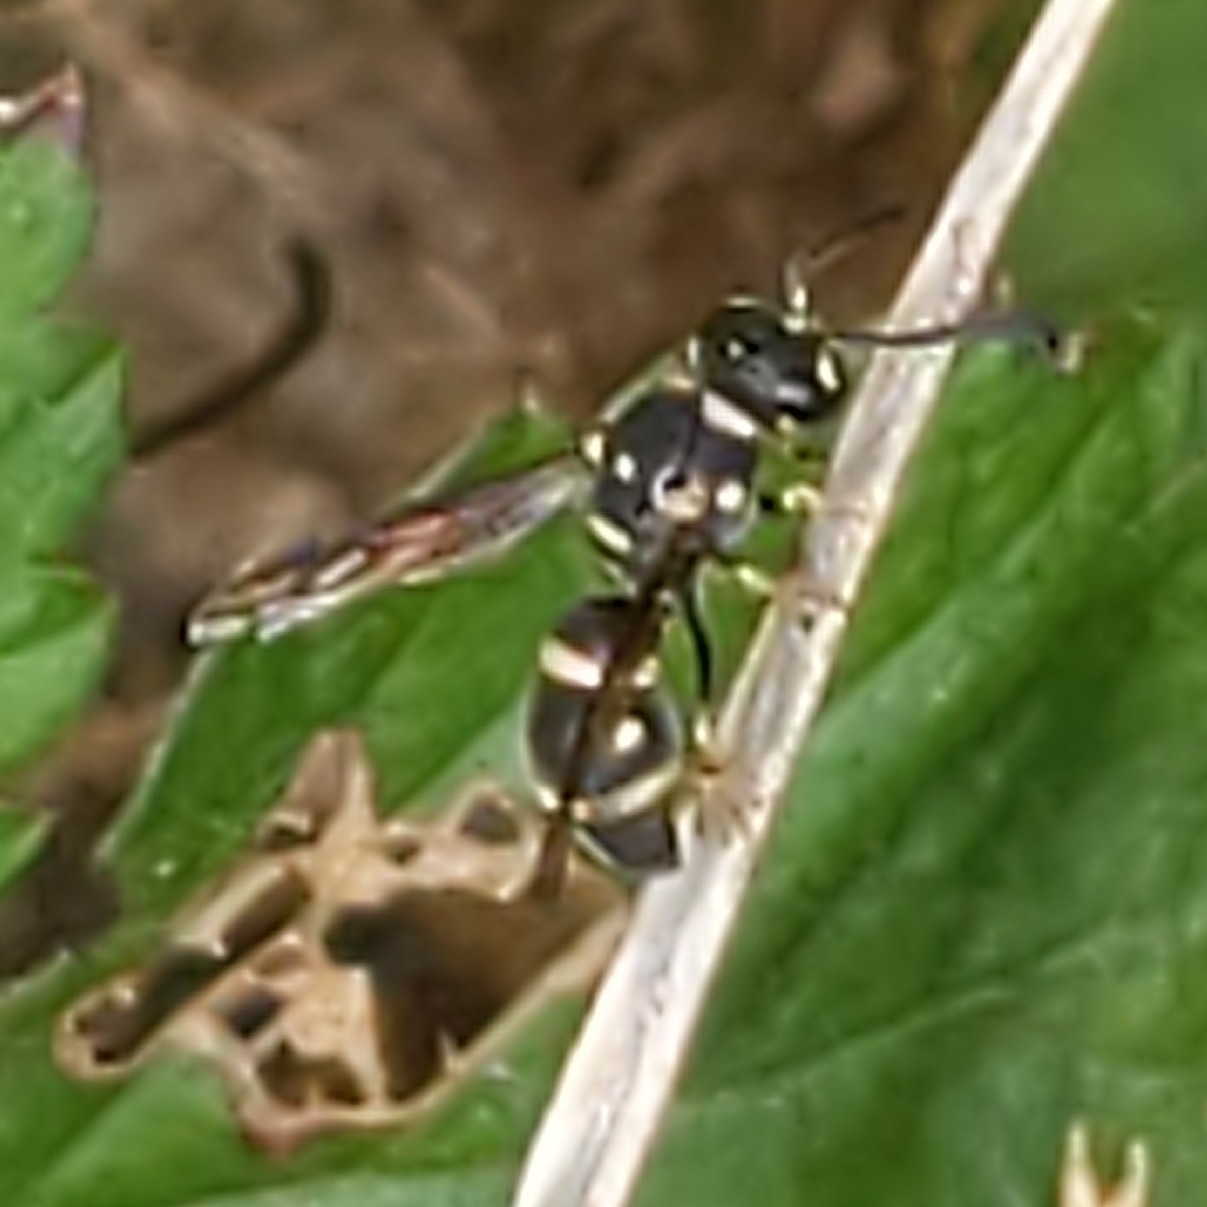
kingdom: Animalia
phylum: Arthropoda
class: Insecta
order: Hymenoptera
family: Eumenidae
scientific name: Eumenidae
